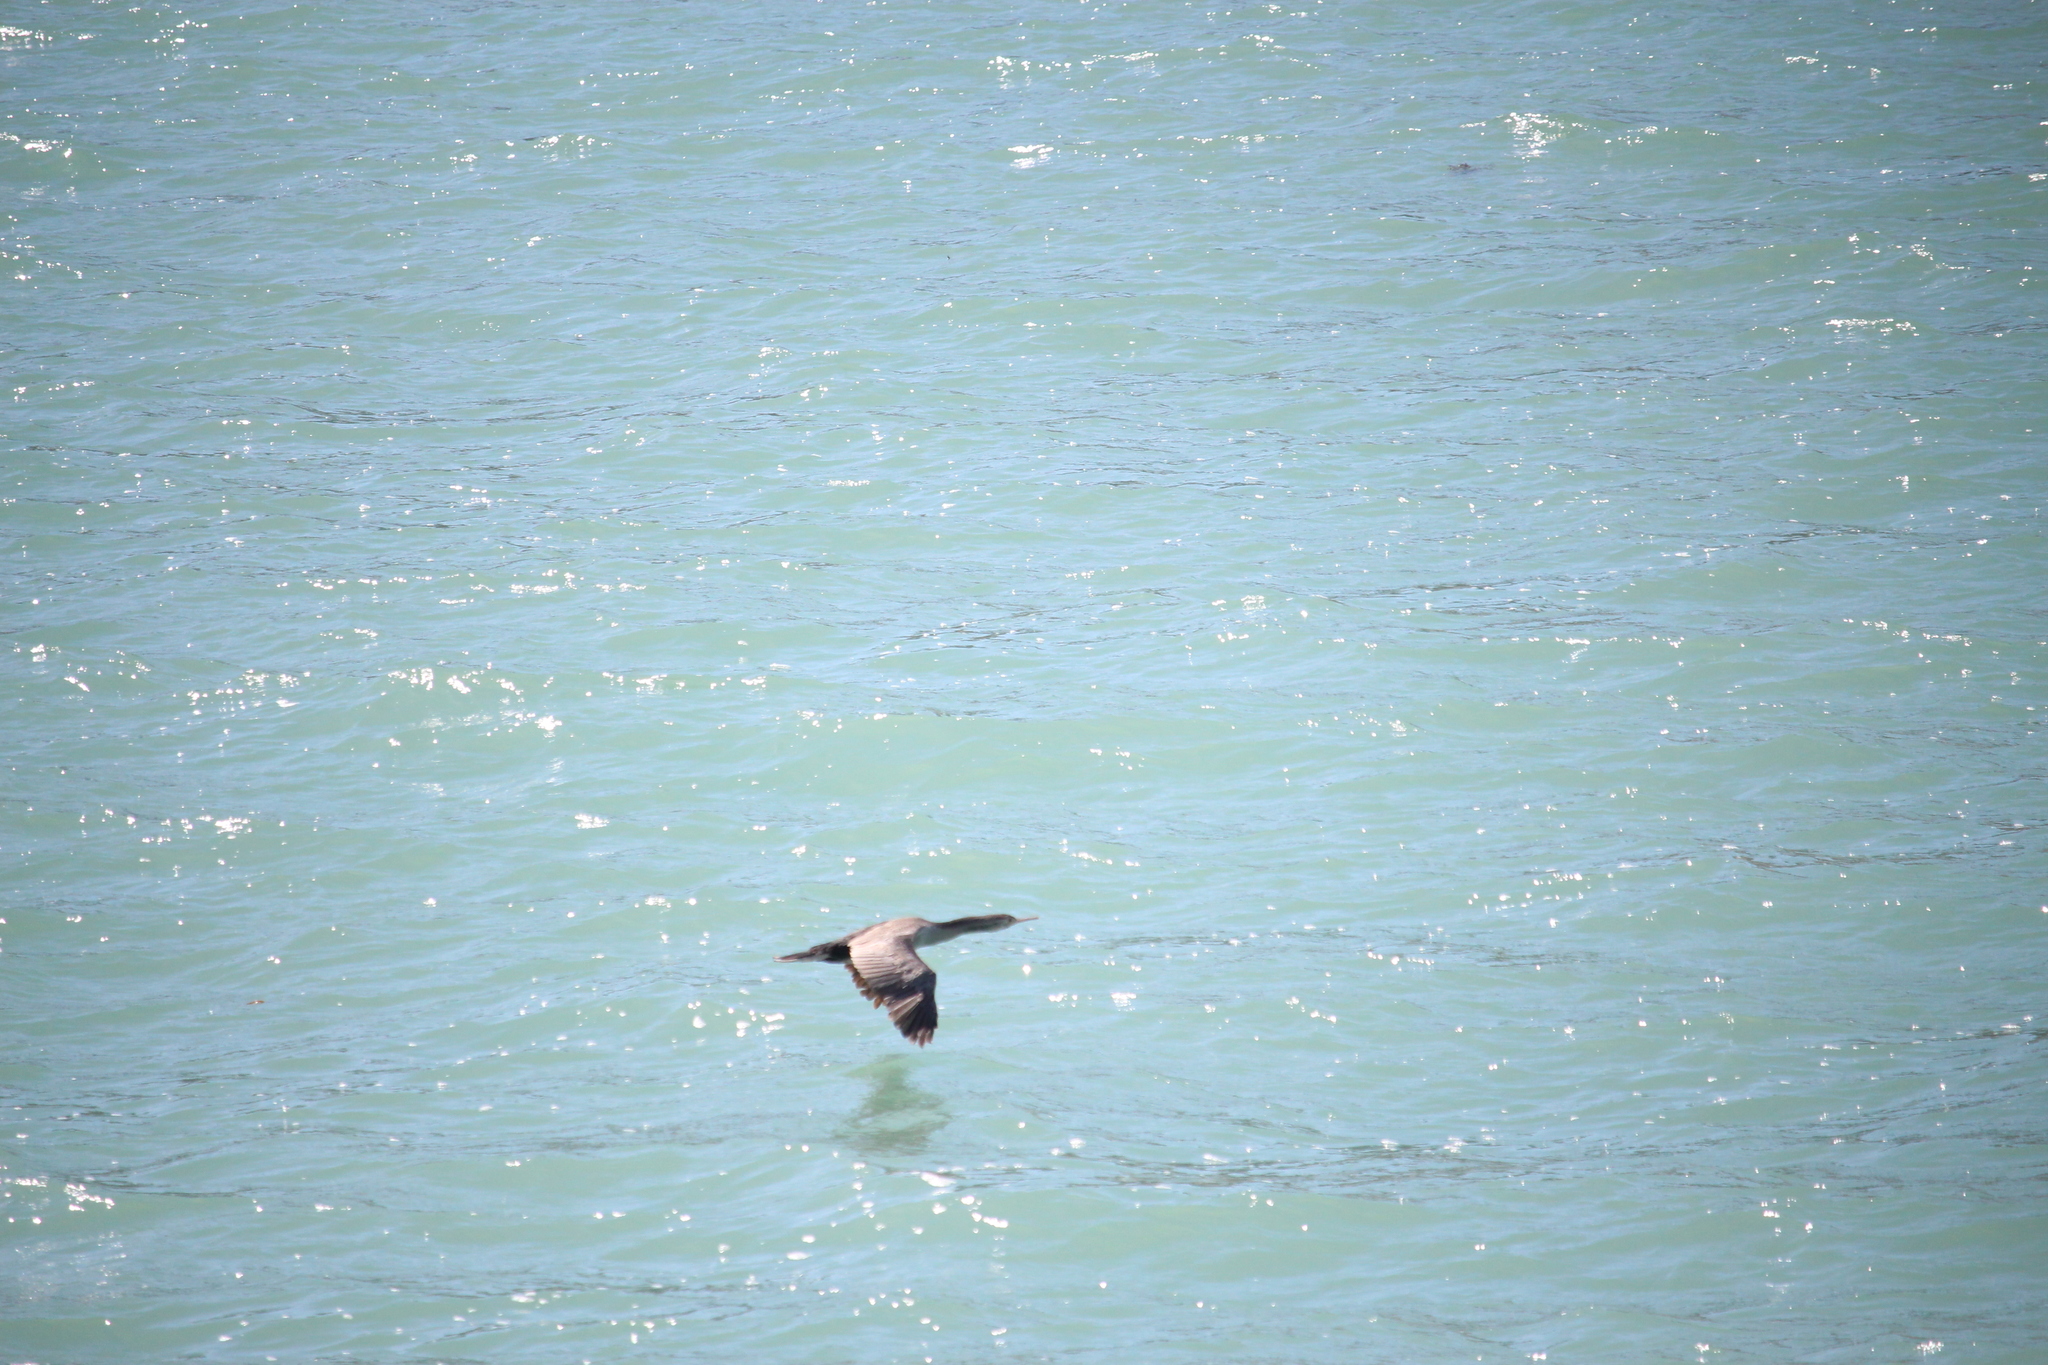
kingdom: Animalia
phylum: Chordata
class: Aves
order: Suliformes
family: Phalacrocoracidae
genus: Phalacrocorax
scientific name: Phalacrocorax punctatus
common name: Spotted shag
